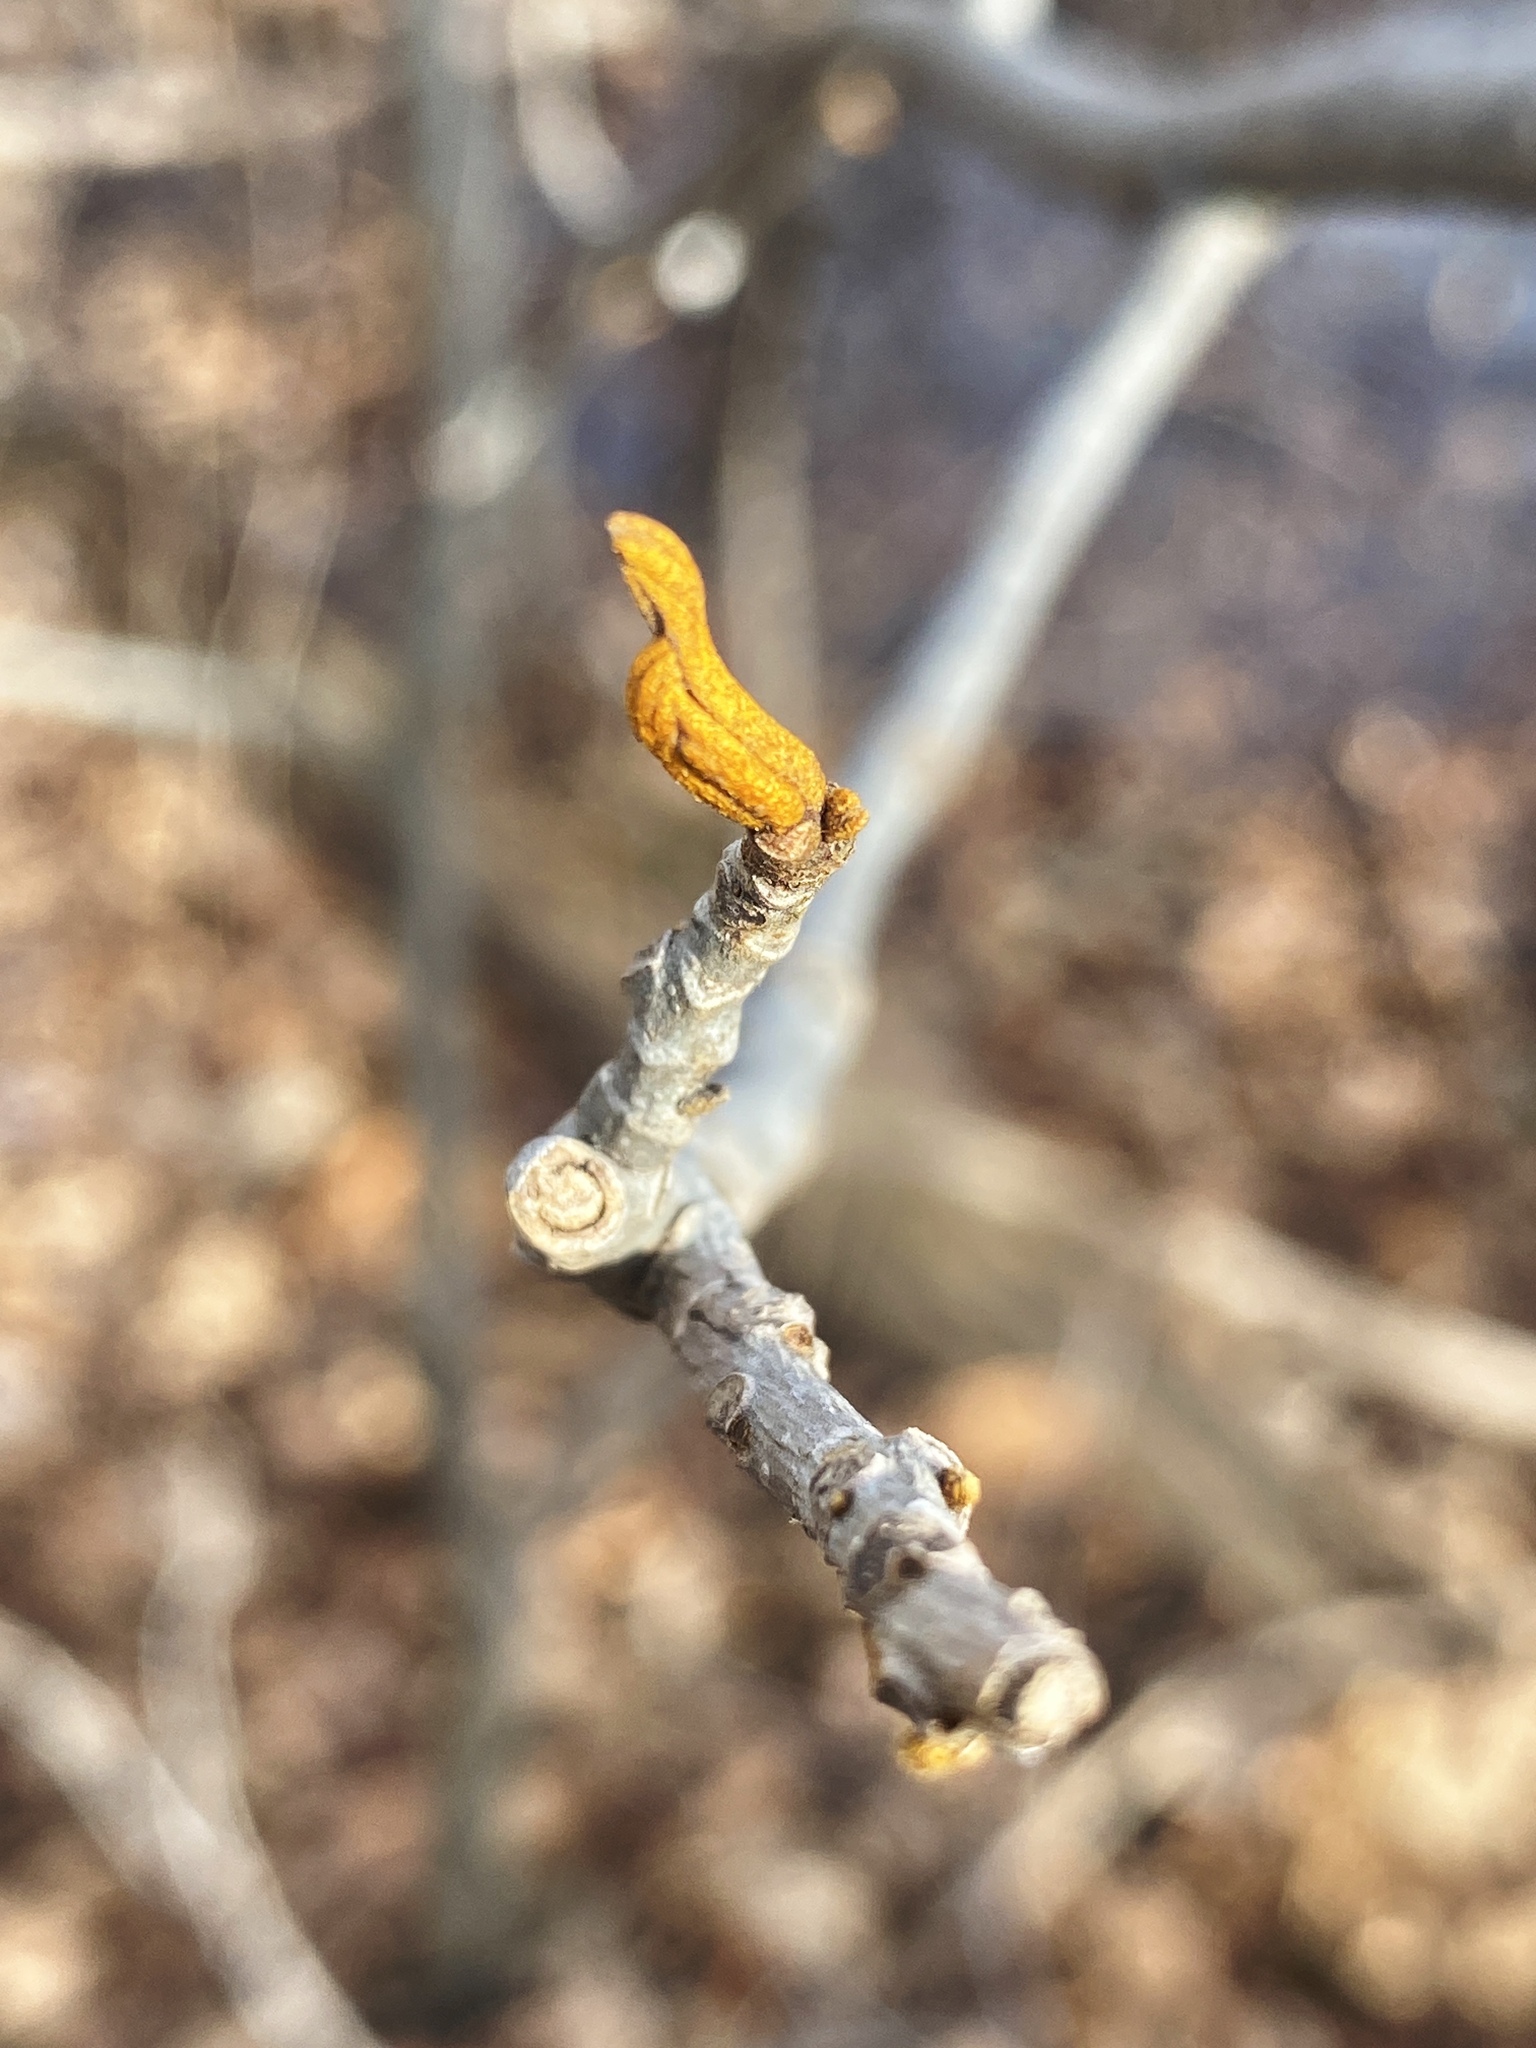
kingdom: Plantae
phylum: Tracheophyta
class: Magnoliopsida
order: Fagales
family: Juglandaceae
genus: Carya
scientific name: Carya cordiformis
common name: Bitternut hickory
